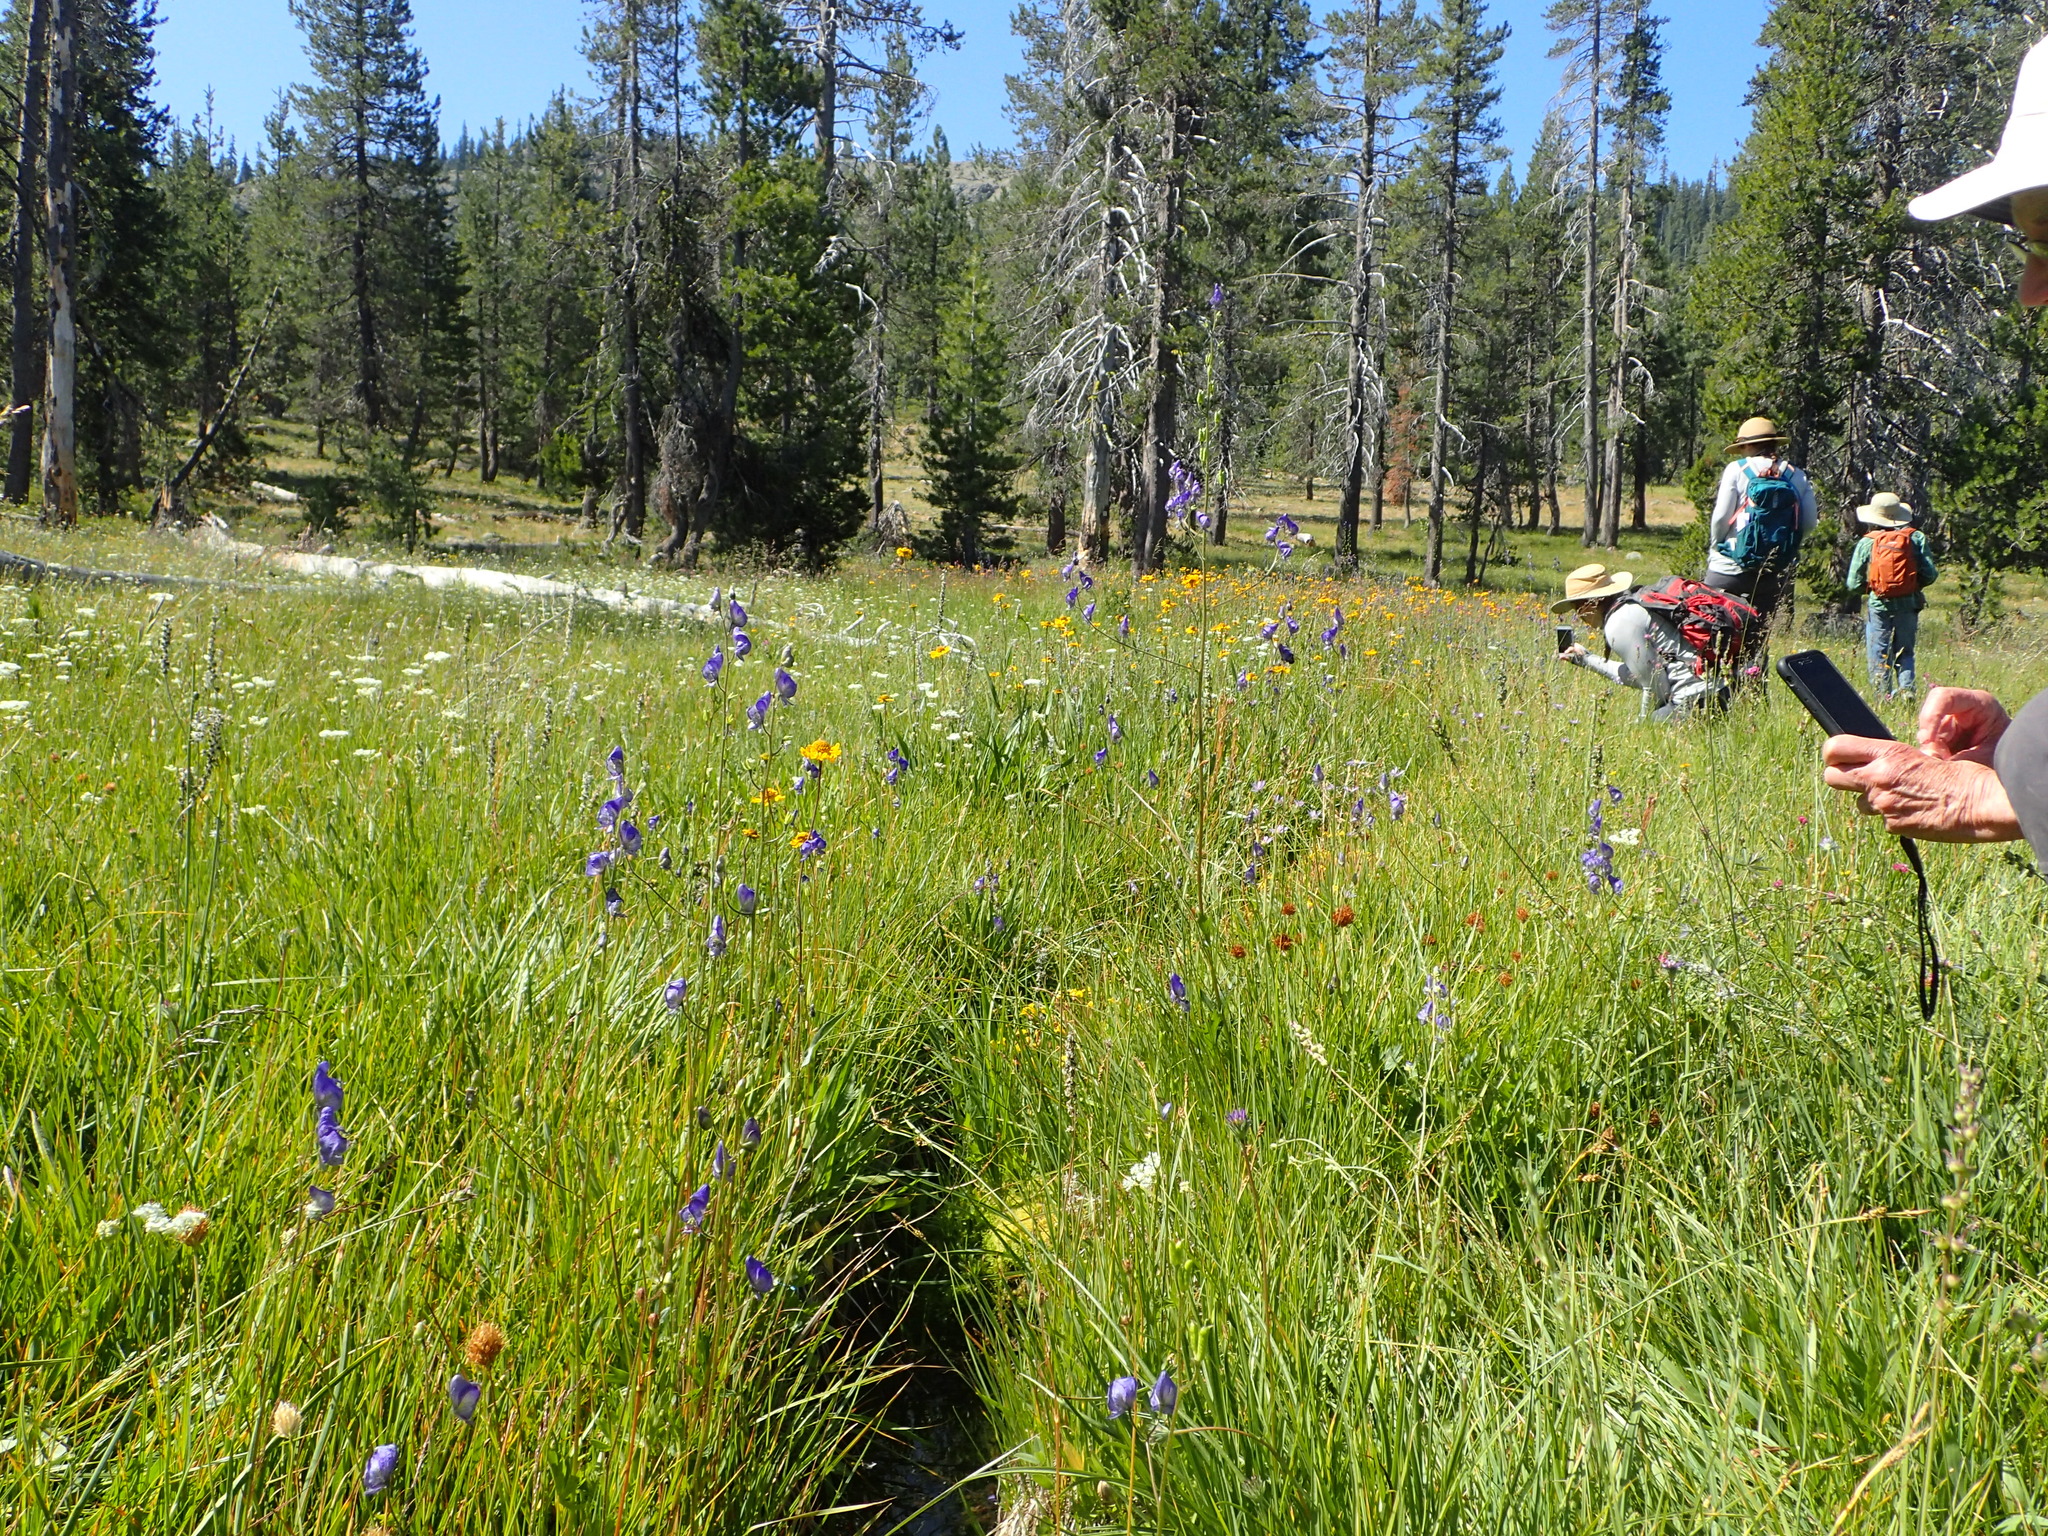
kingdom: Plantae
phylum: Tracheophyta
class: Magnoliopsida
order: Ranunculales
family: Ranunculaceae
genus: Aconitum
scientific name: Aconitum columbianum
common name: Columbia aconite
